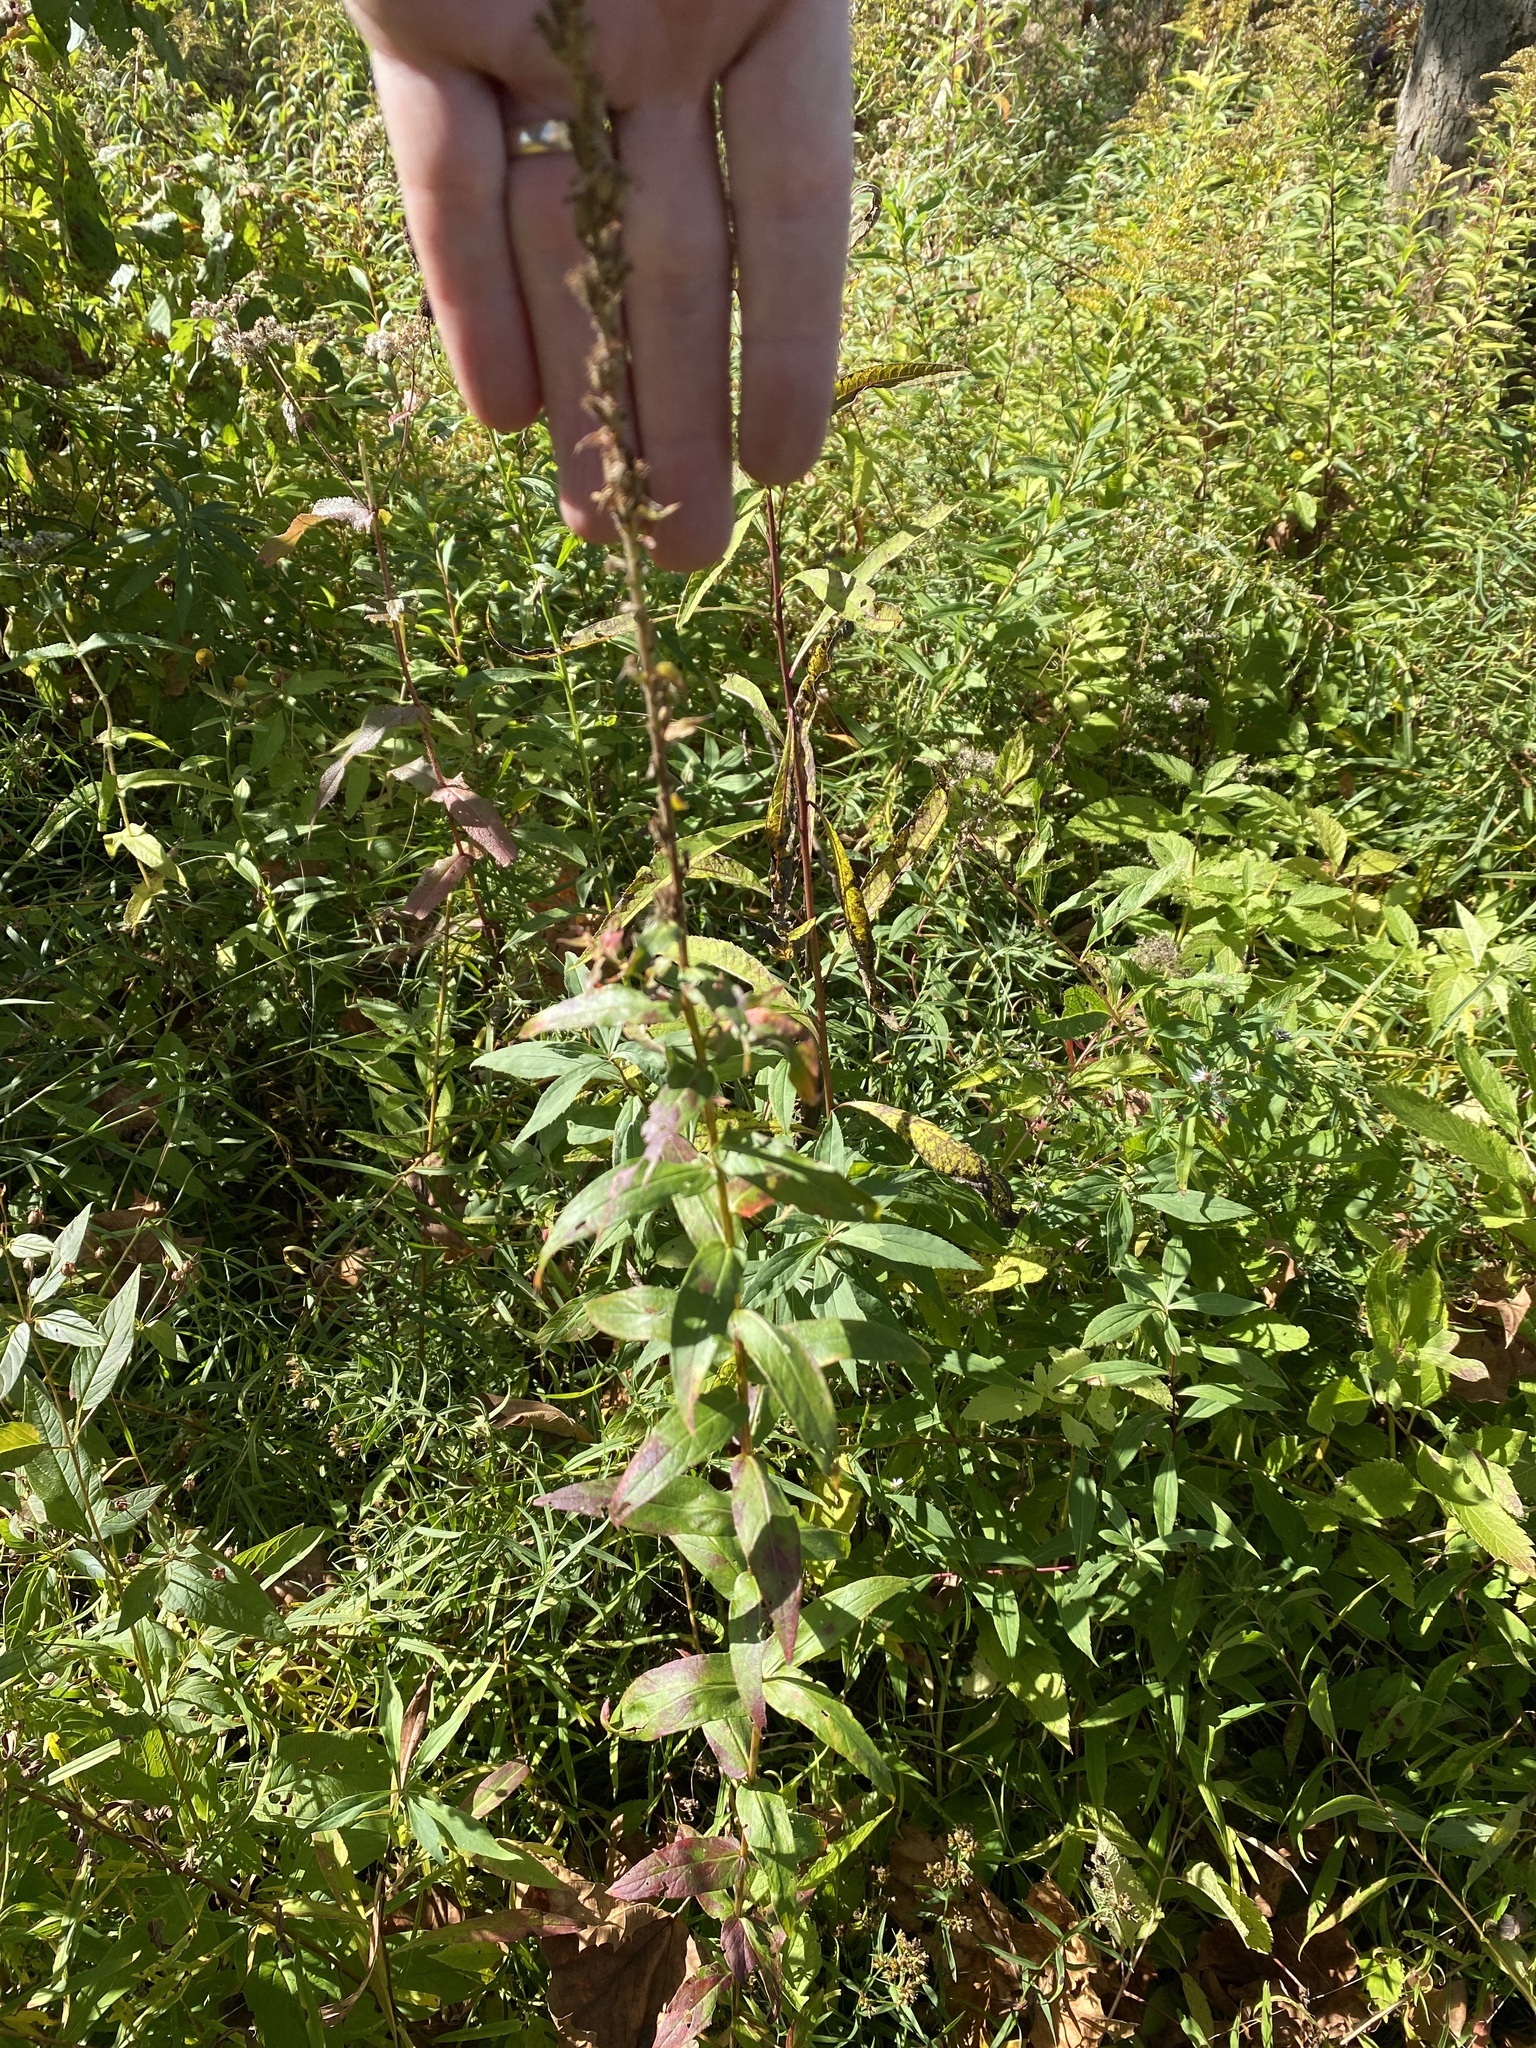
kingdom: Plantae
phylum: Tracheophyta
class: Magnoliopsida
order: Myrtales
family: Lythraceae
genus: Lythrum
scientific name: Lythrum salicaria
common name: Purple loosestrife
